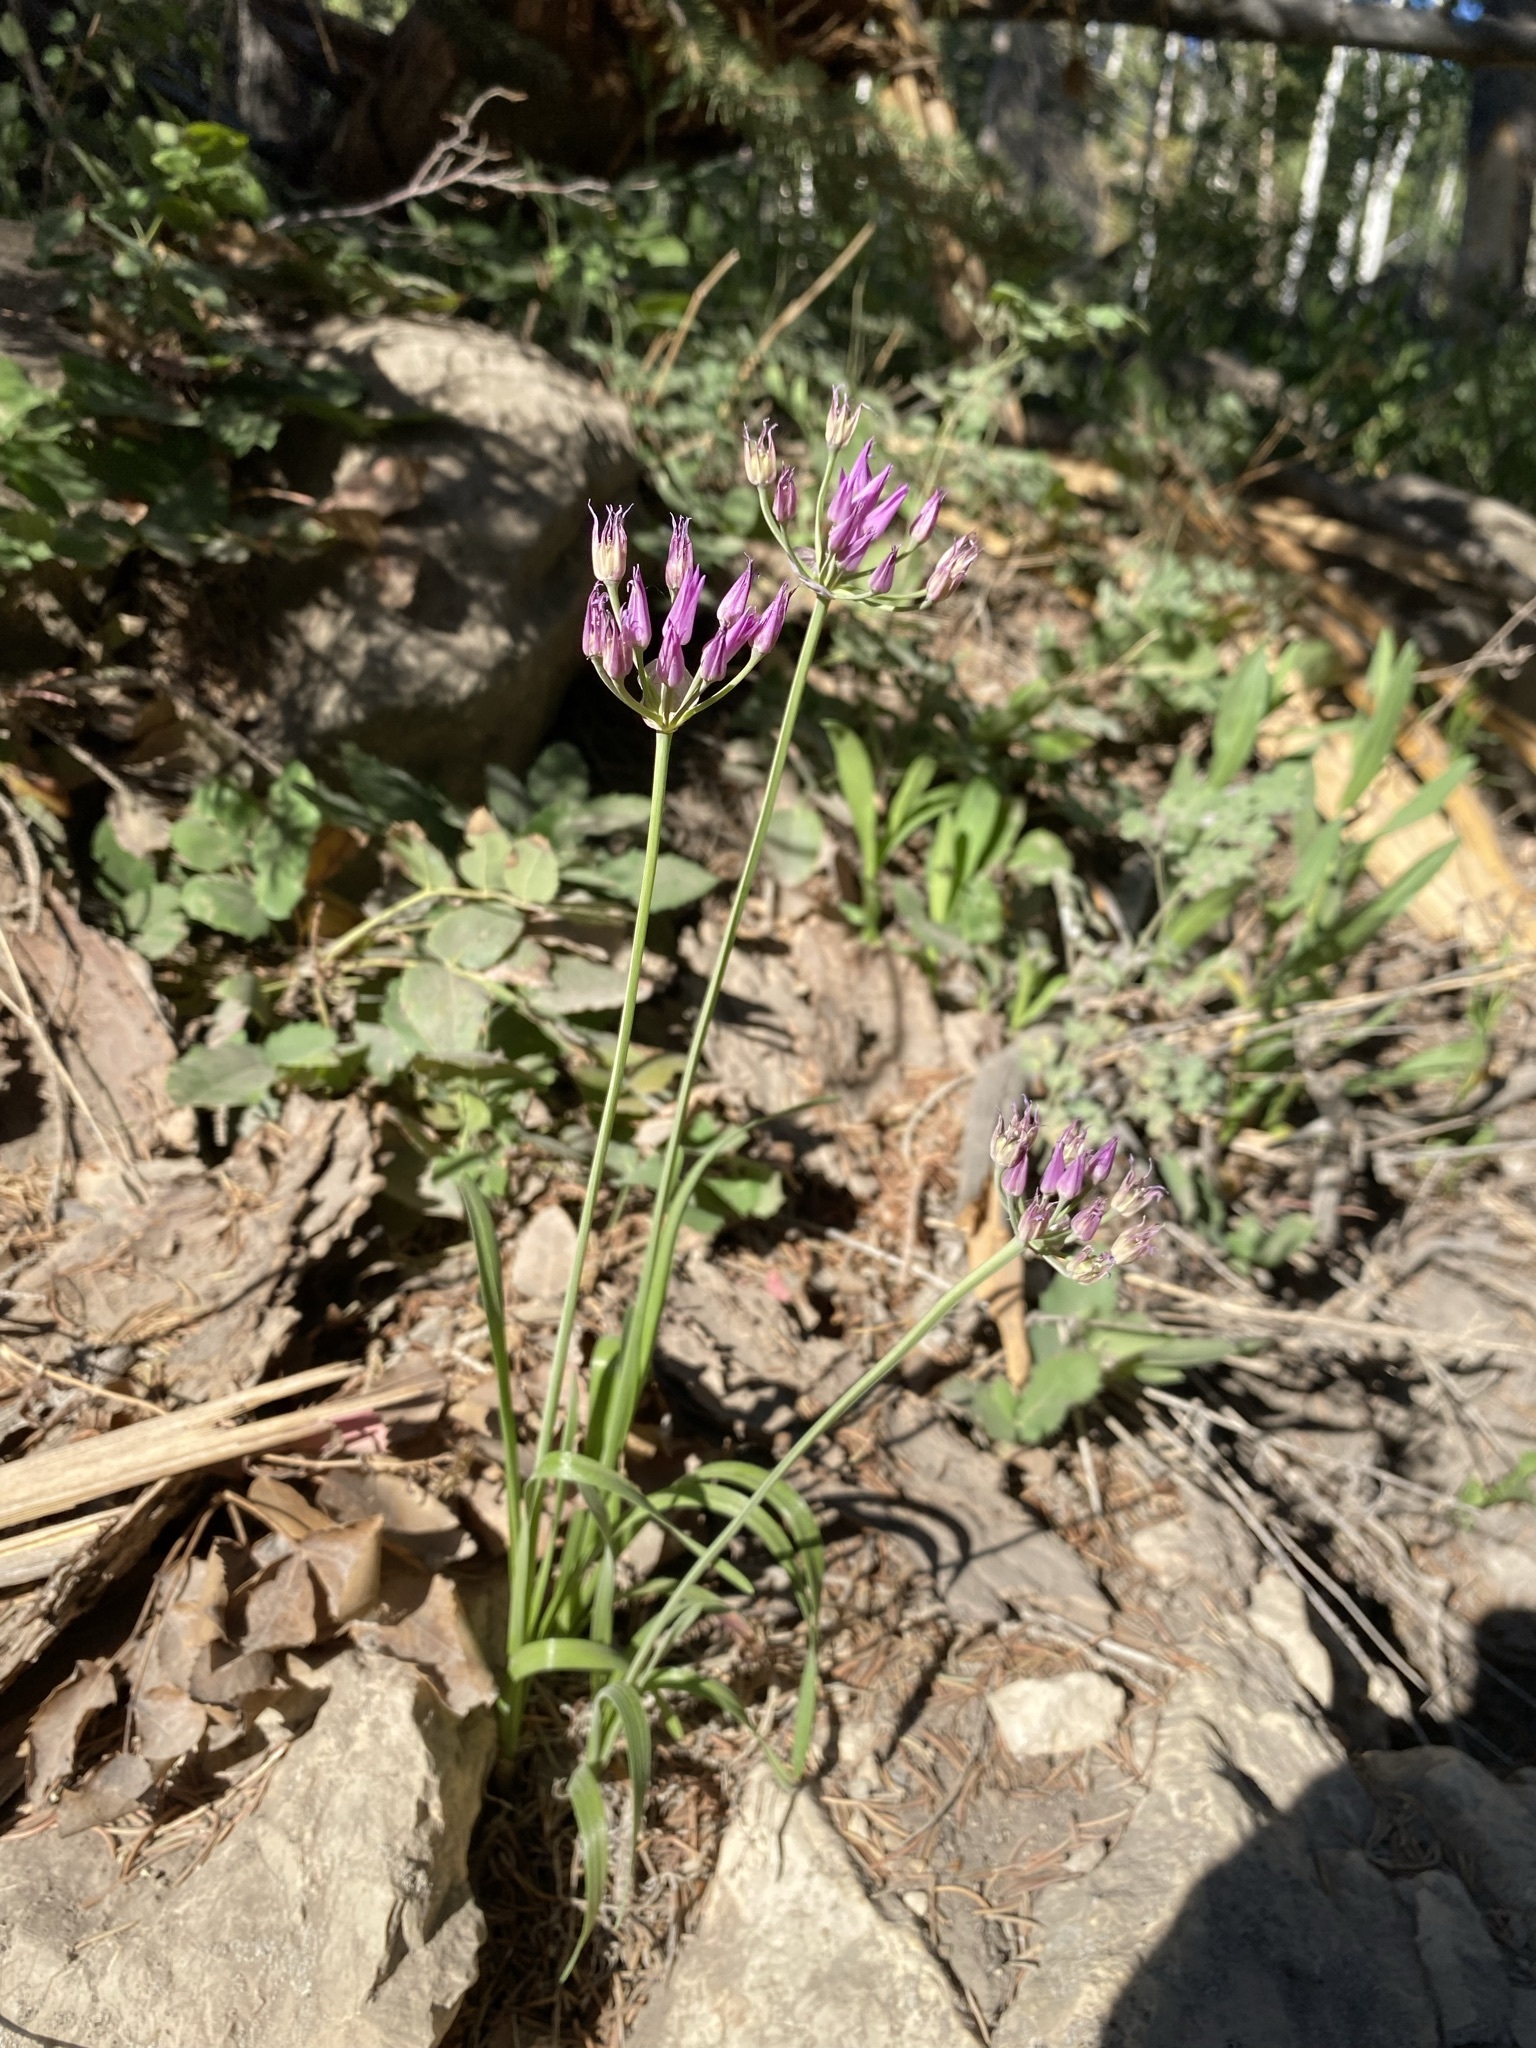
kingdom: Plantae
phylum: Tracheophyta
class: Liliopsida
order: Asparagales
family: Amaryllidaceae
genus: Allium
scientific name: Allium brevistylum
